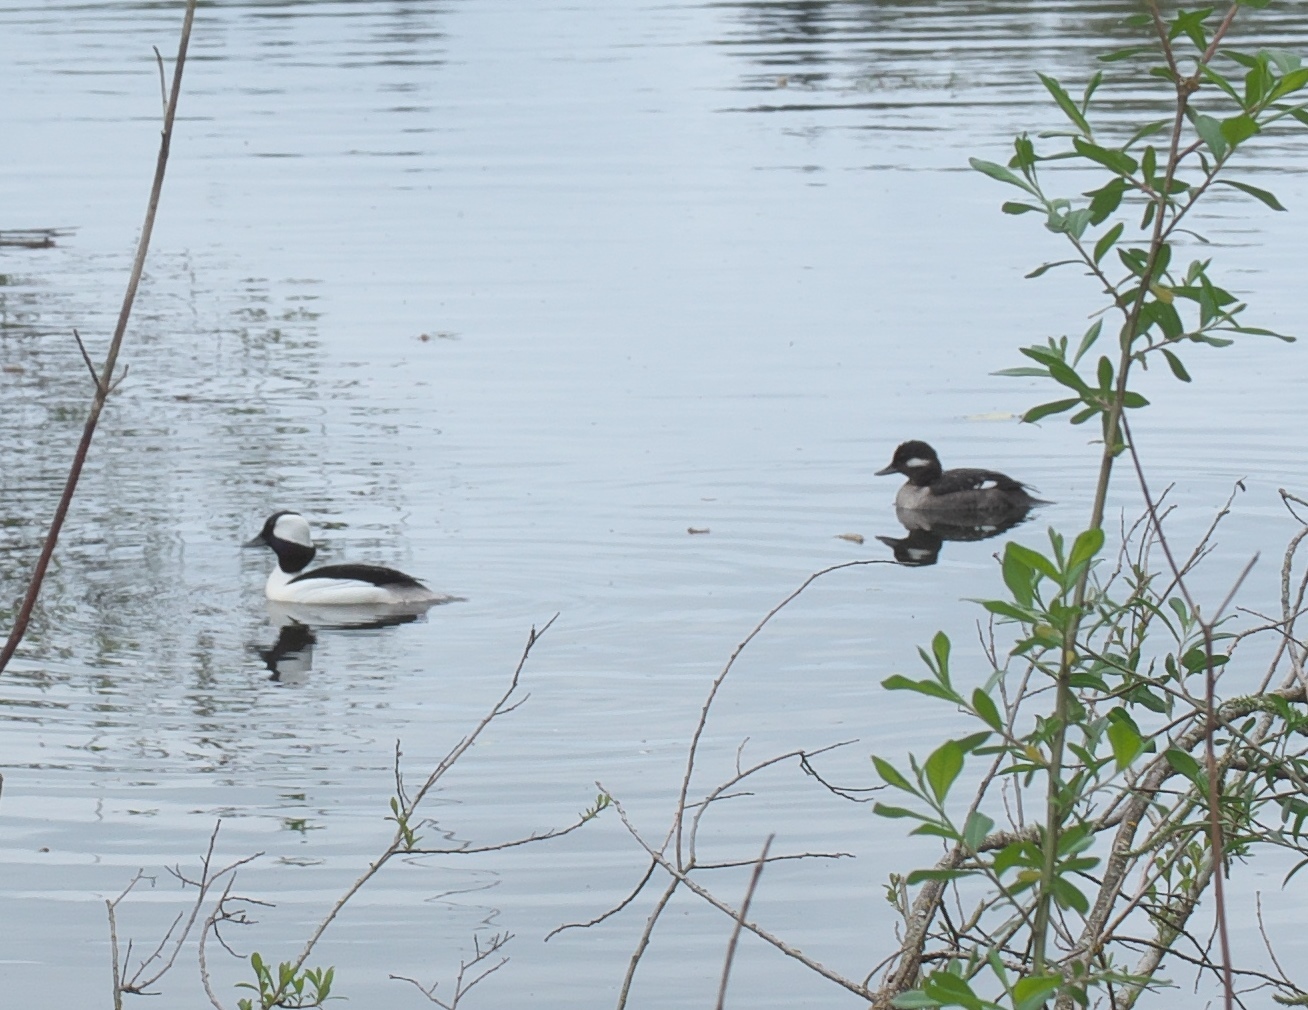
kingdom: Animalia
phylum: Chordata
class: Aves
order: Anseriformes
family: Anatidae
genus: Bucephala
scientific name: Bucephala albeola
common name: Bufflehead
